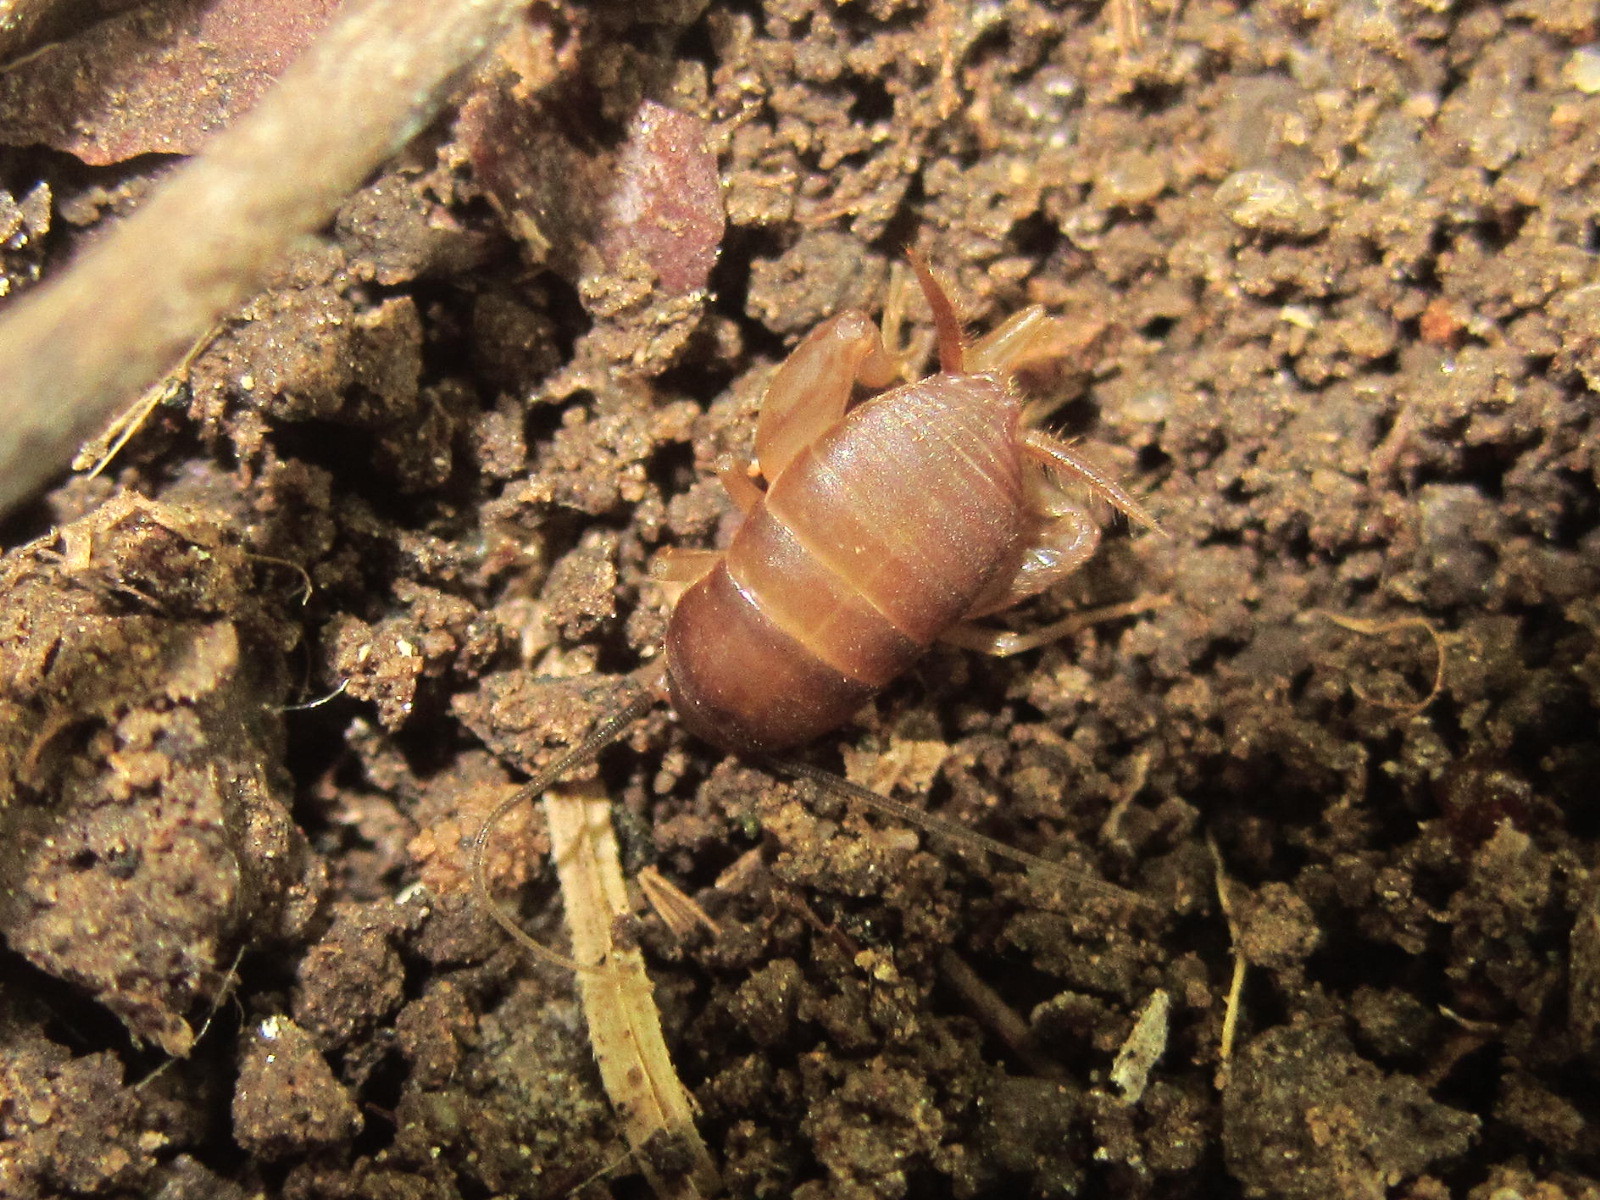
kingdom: Animalia
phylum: Arthropoda
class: Insecta
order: Orthoptera
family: Myrmecophilidae
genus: Myrmecophilus
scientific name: Myrmecophilus acervorum
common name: Ants-nest cricket
